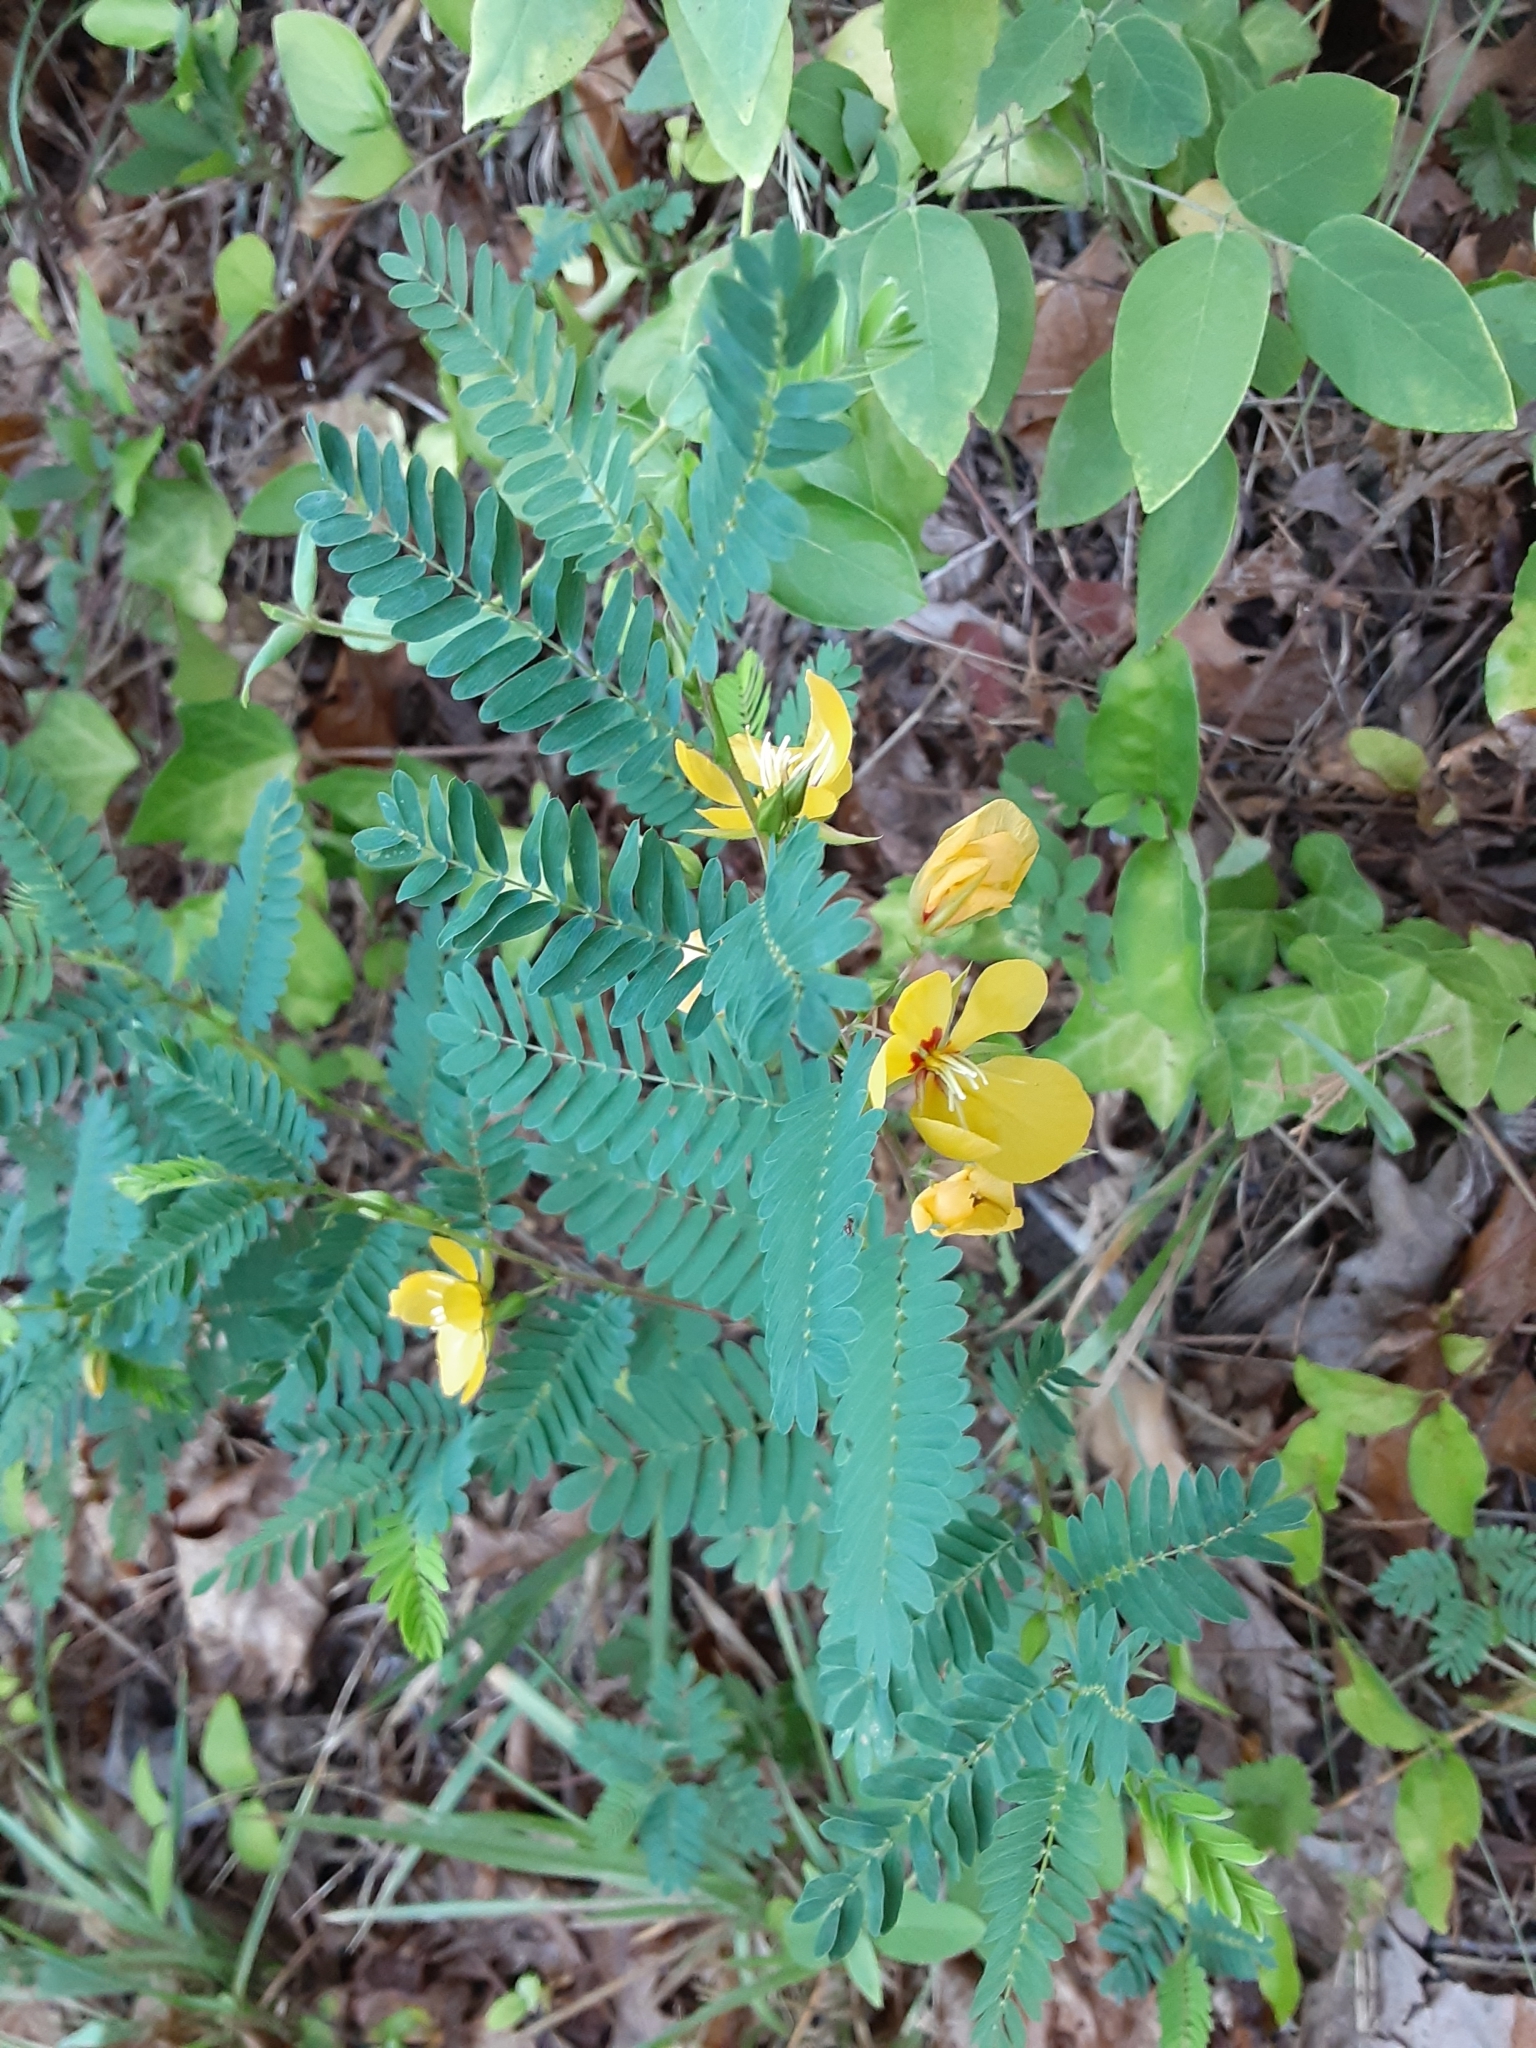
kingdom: Plantae
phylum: Tracheophyta
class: Magnoliopsida
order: Fabales
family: Fabaceae
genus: Chamaecrista
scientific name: Chamaecrista fasciculata
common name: Golden cassia
